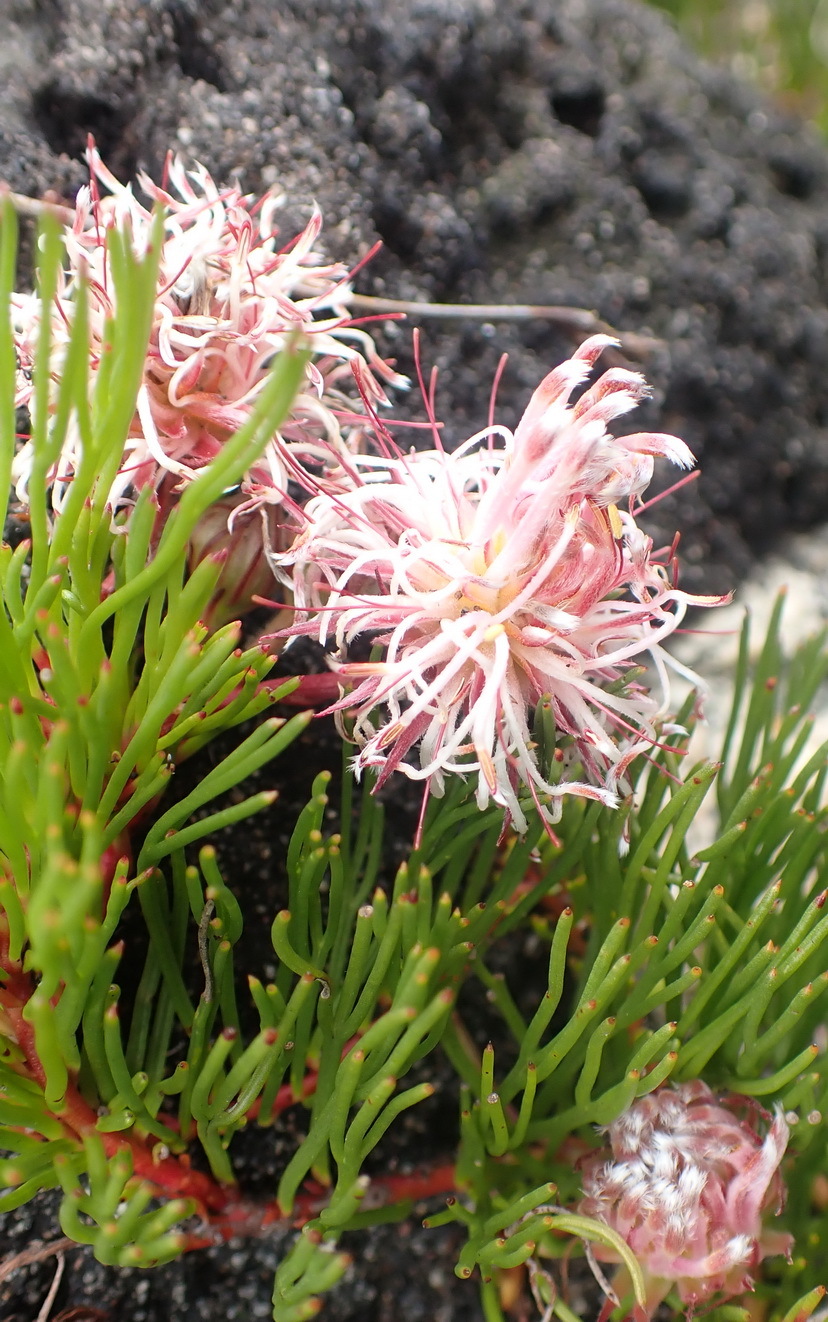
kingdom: Plantae
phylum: Tracheophyta
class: Magnoliopsida
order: Proteales
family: Proteaceae
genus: Serruria
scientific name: Serruria phylicoides
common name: Bearded spiderhead
